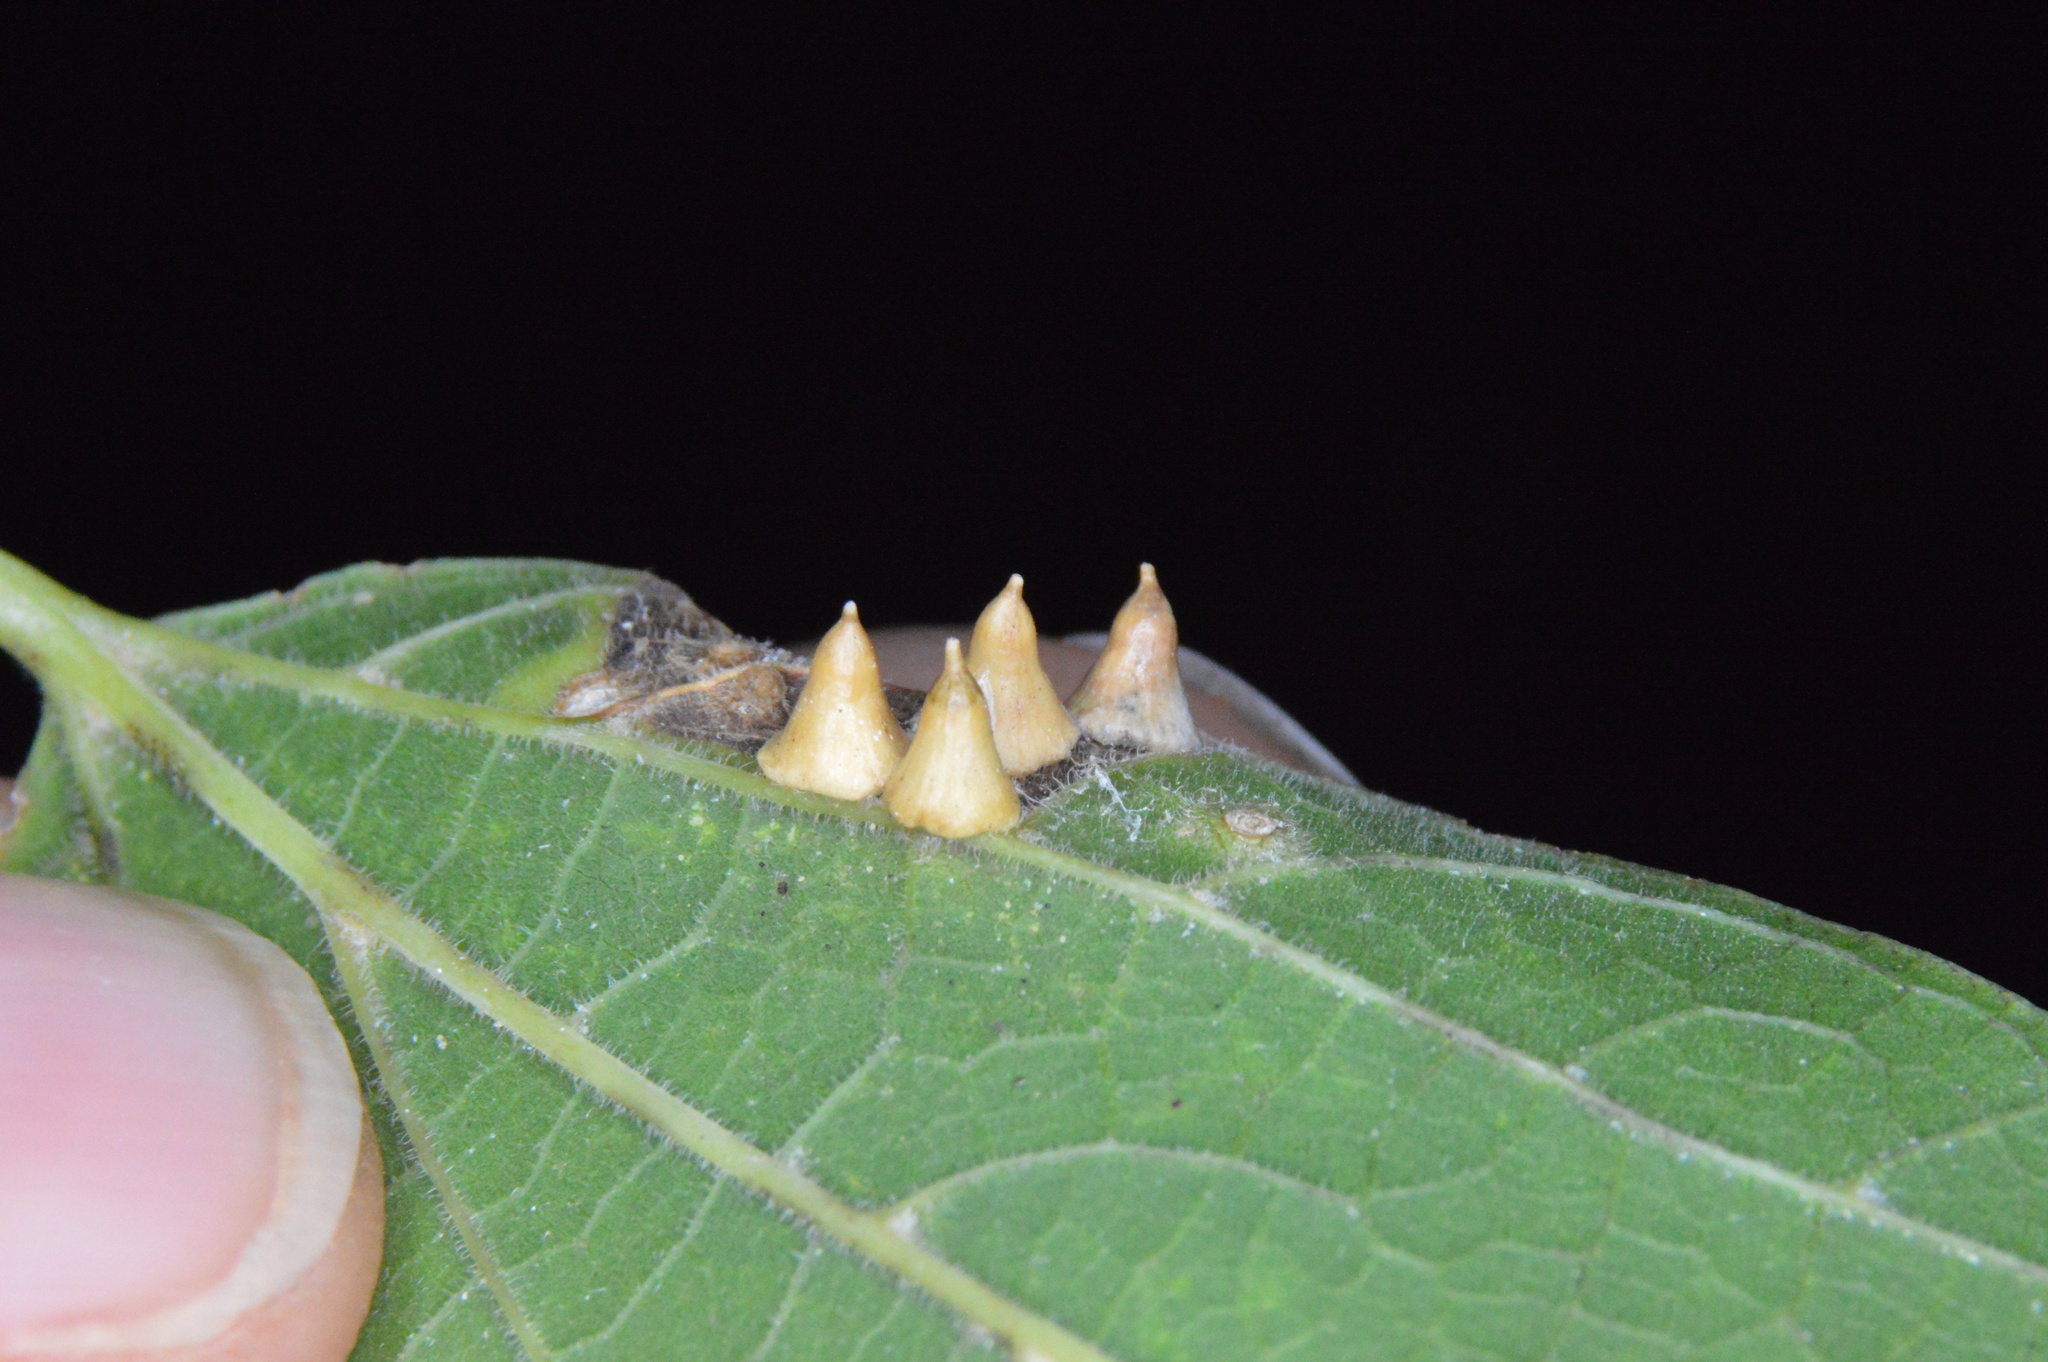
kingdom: Animalia
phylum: Arthropoda
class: Insecta
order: Diptera
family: Cecidomyiidae
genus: Celticecis
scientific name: Celticecis spiniformis
